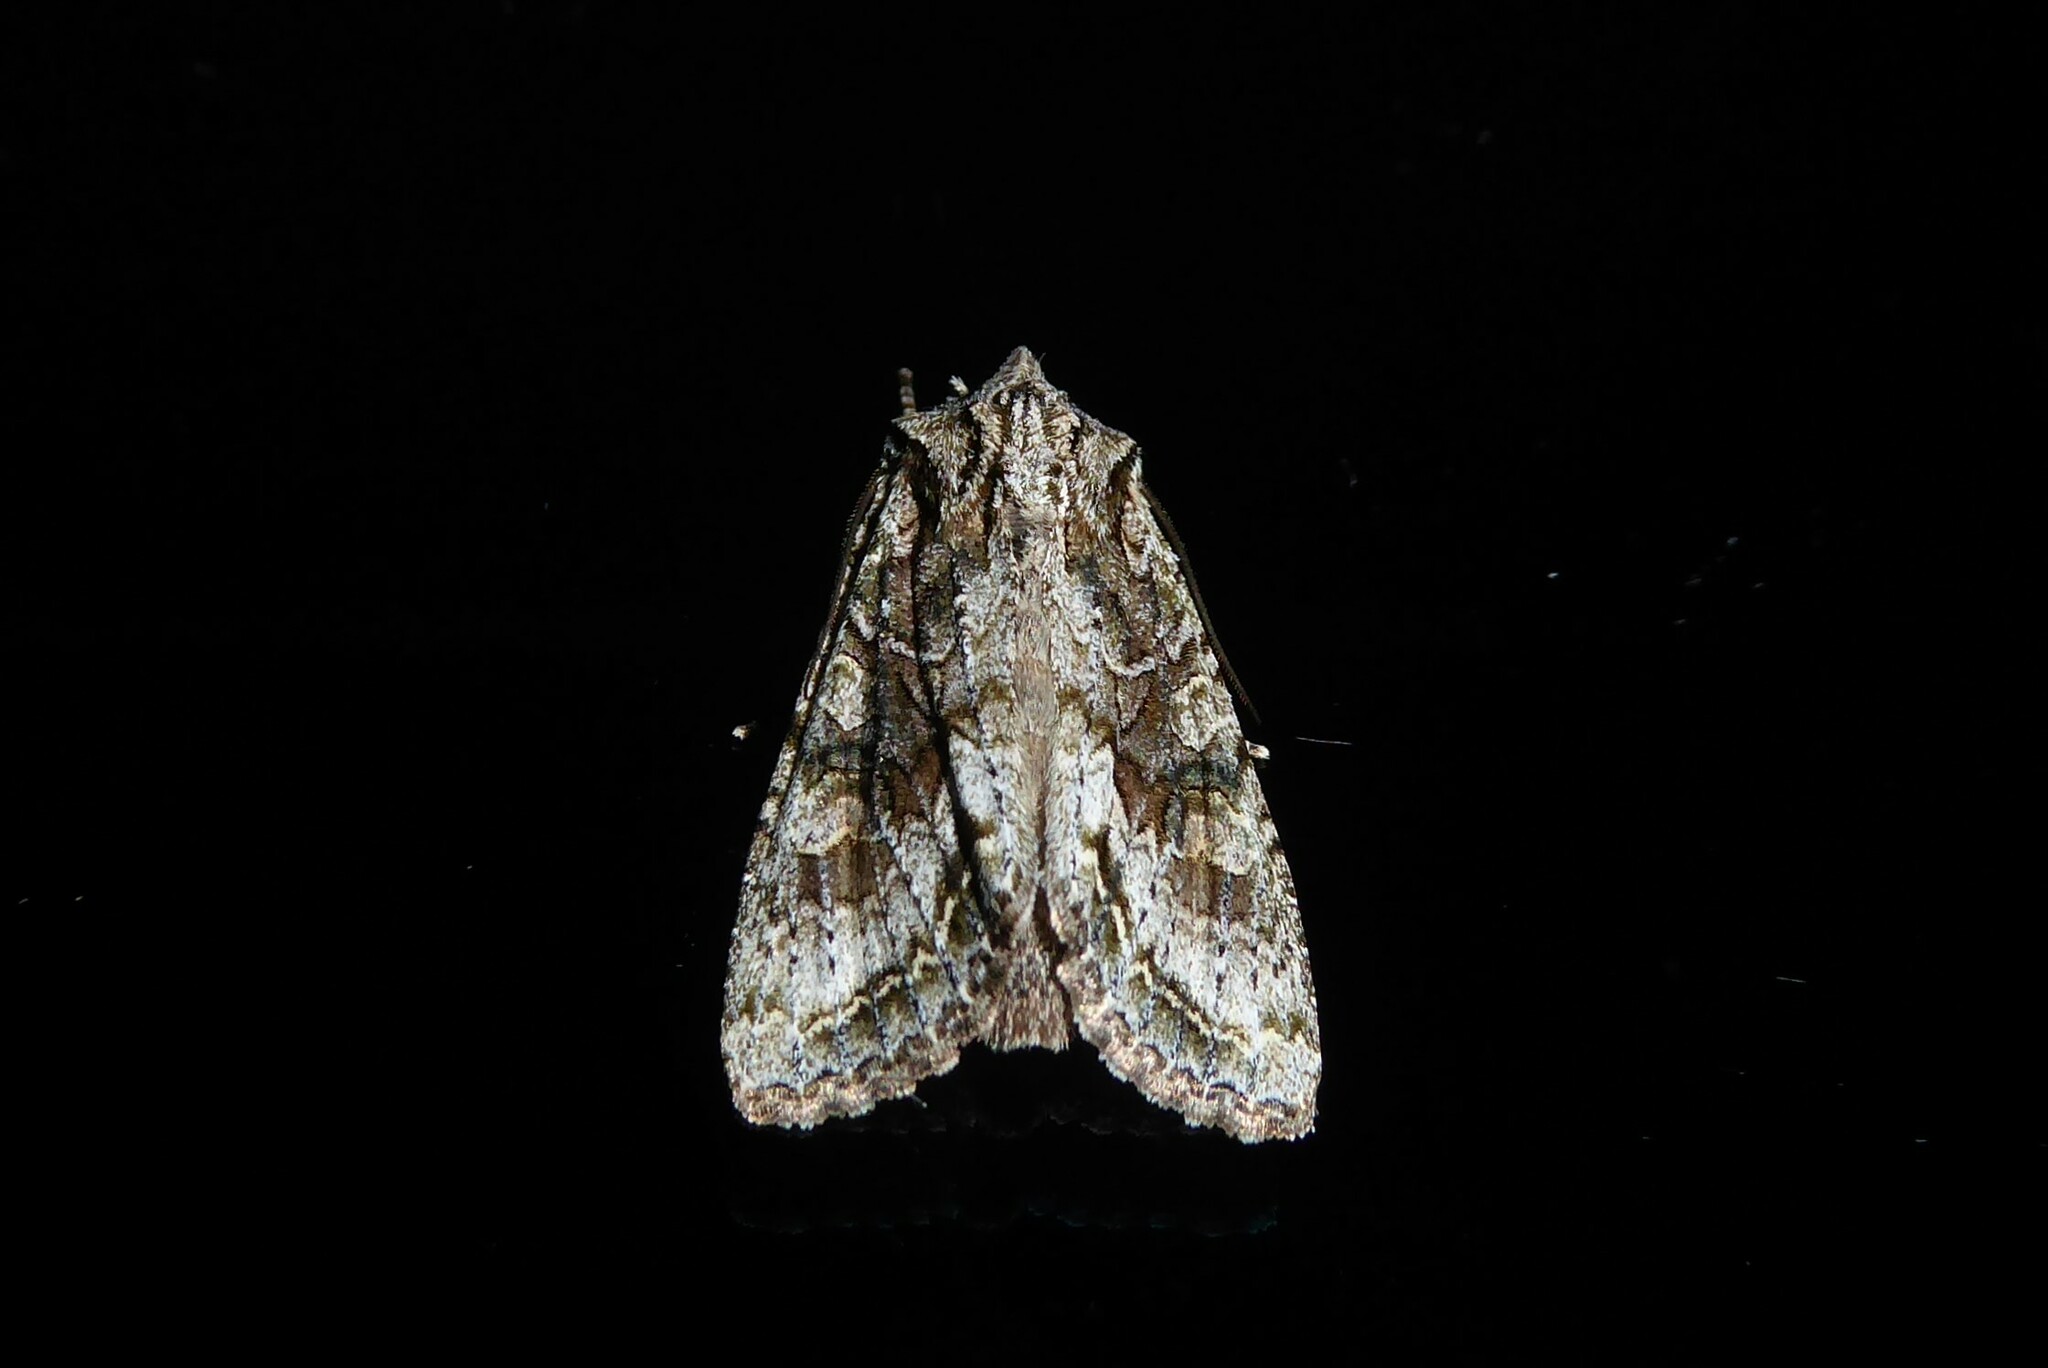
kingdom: Animalia
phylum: Arthropoda
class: Insecta
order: Lepidoptera
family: Noctuidae
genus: Ichneutica
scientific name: Ichneutica mutans
